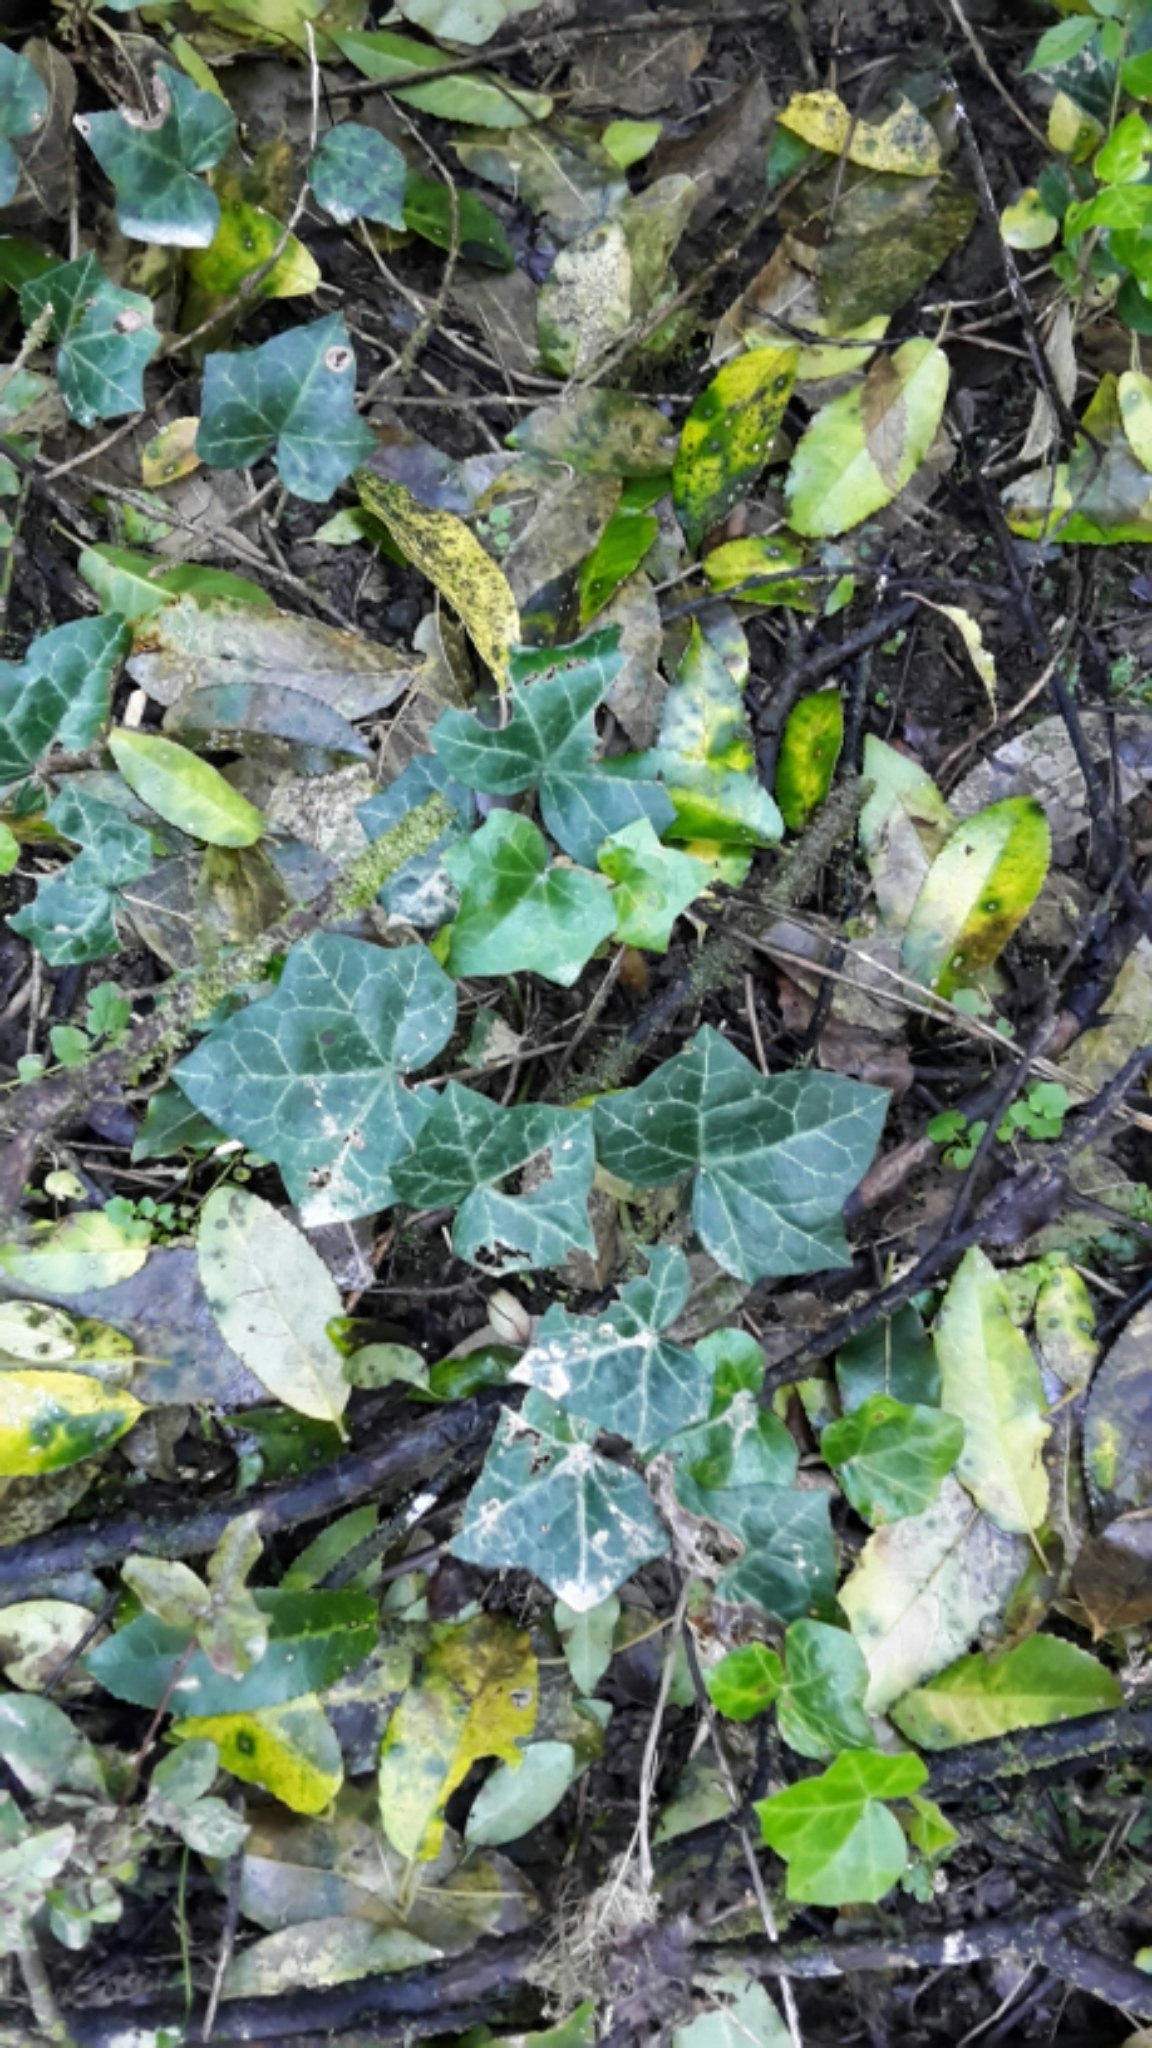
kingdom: Plantae
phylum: Tracheophyta
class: Magnoliopsida
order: Apiales
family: Araliaceae
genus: Hedera
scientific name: Hedera helix
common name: Ivy
